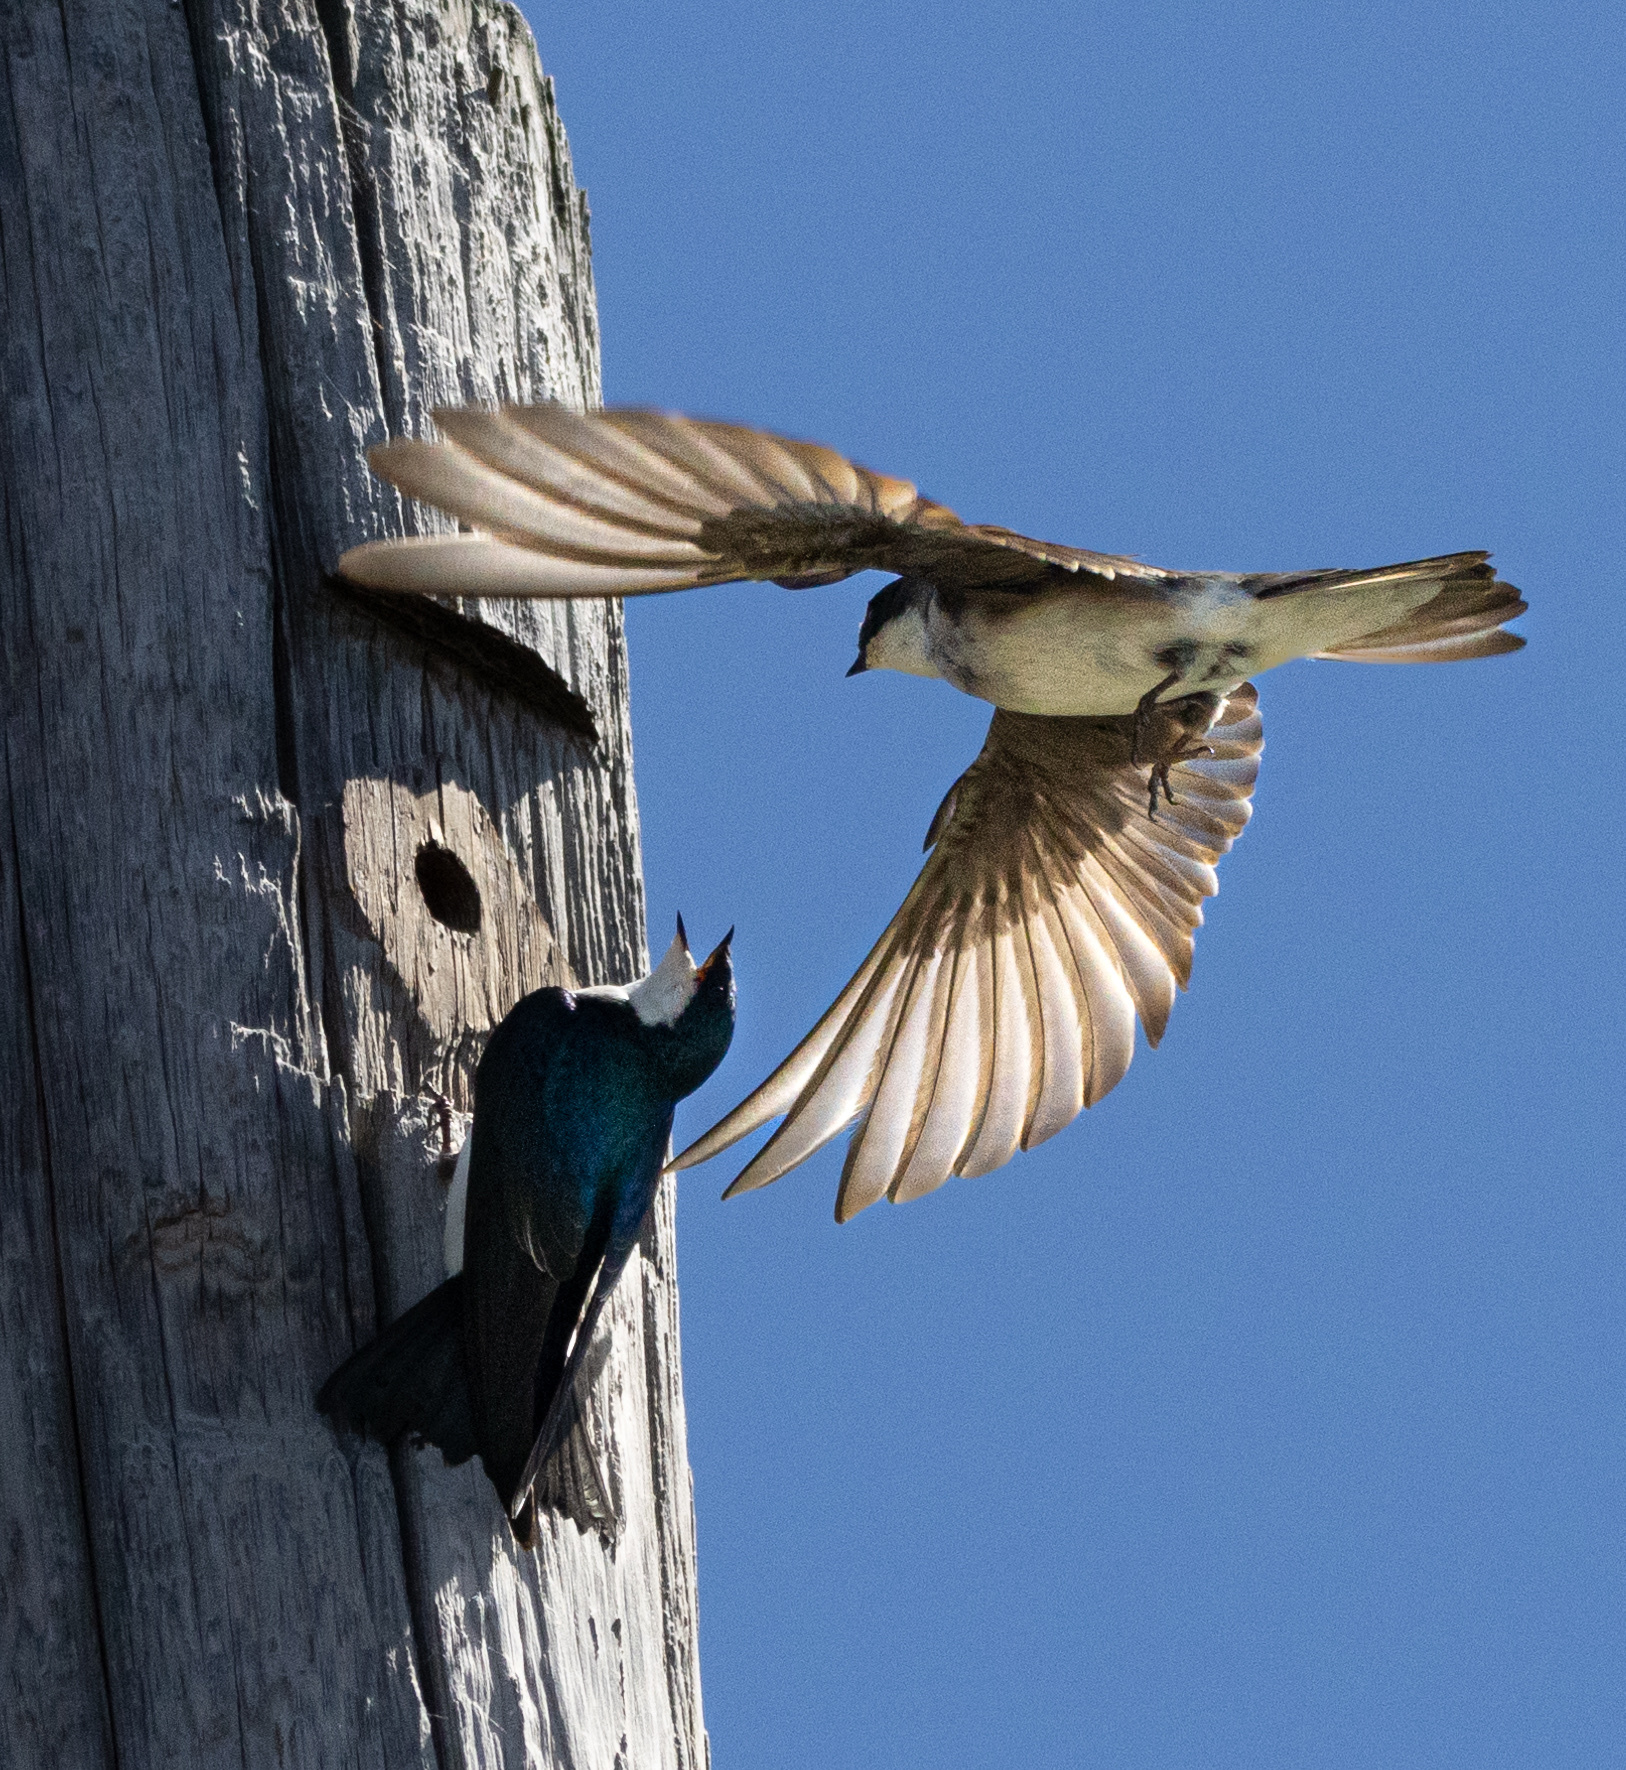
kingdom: Animalia
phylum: Chordata
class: Aves
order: Passeriformes
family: Hirundinidae
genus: Tachycineta
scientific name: Tachycineta bicolor
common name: Tree swallow
